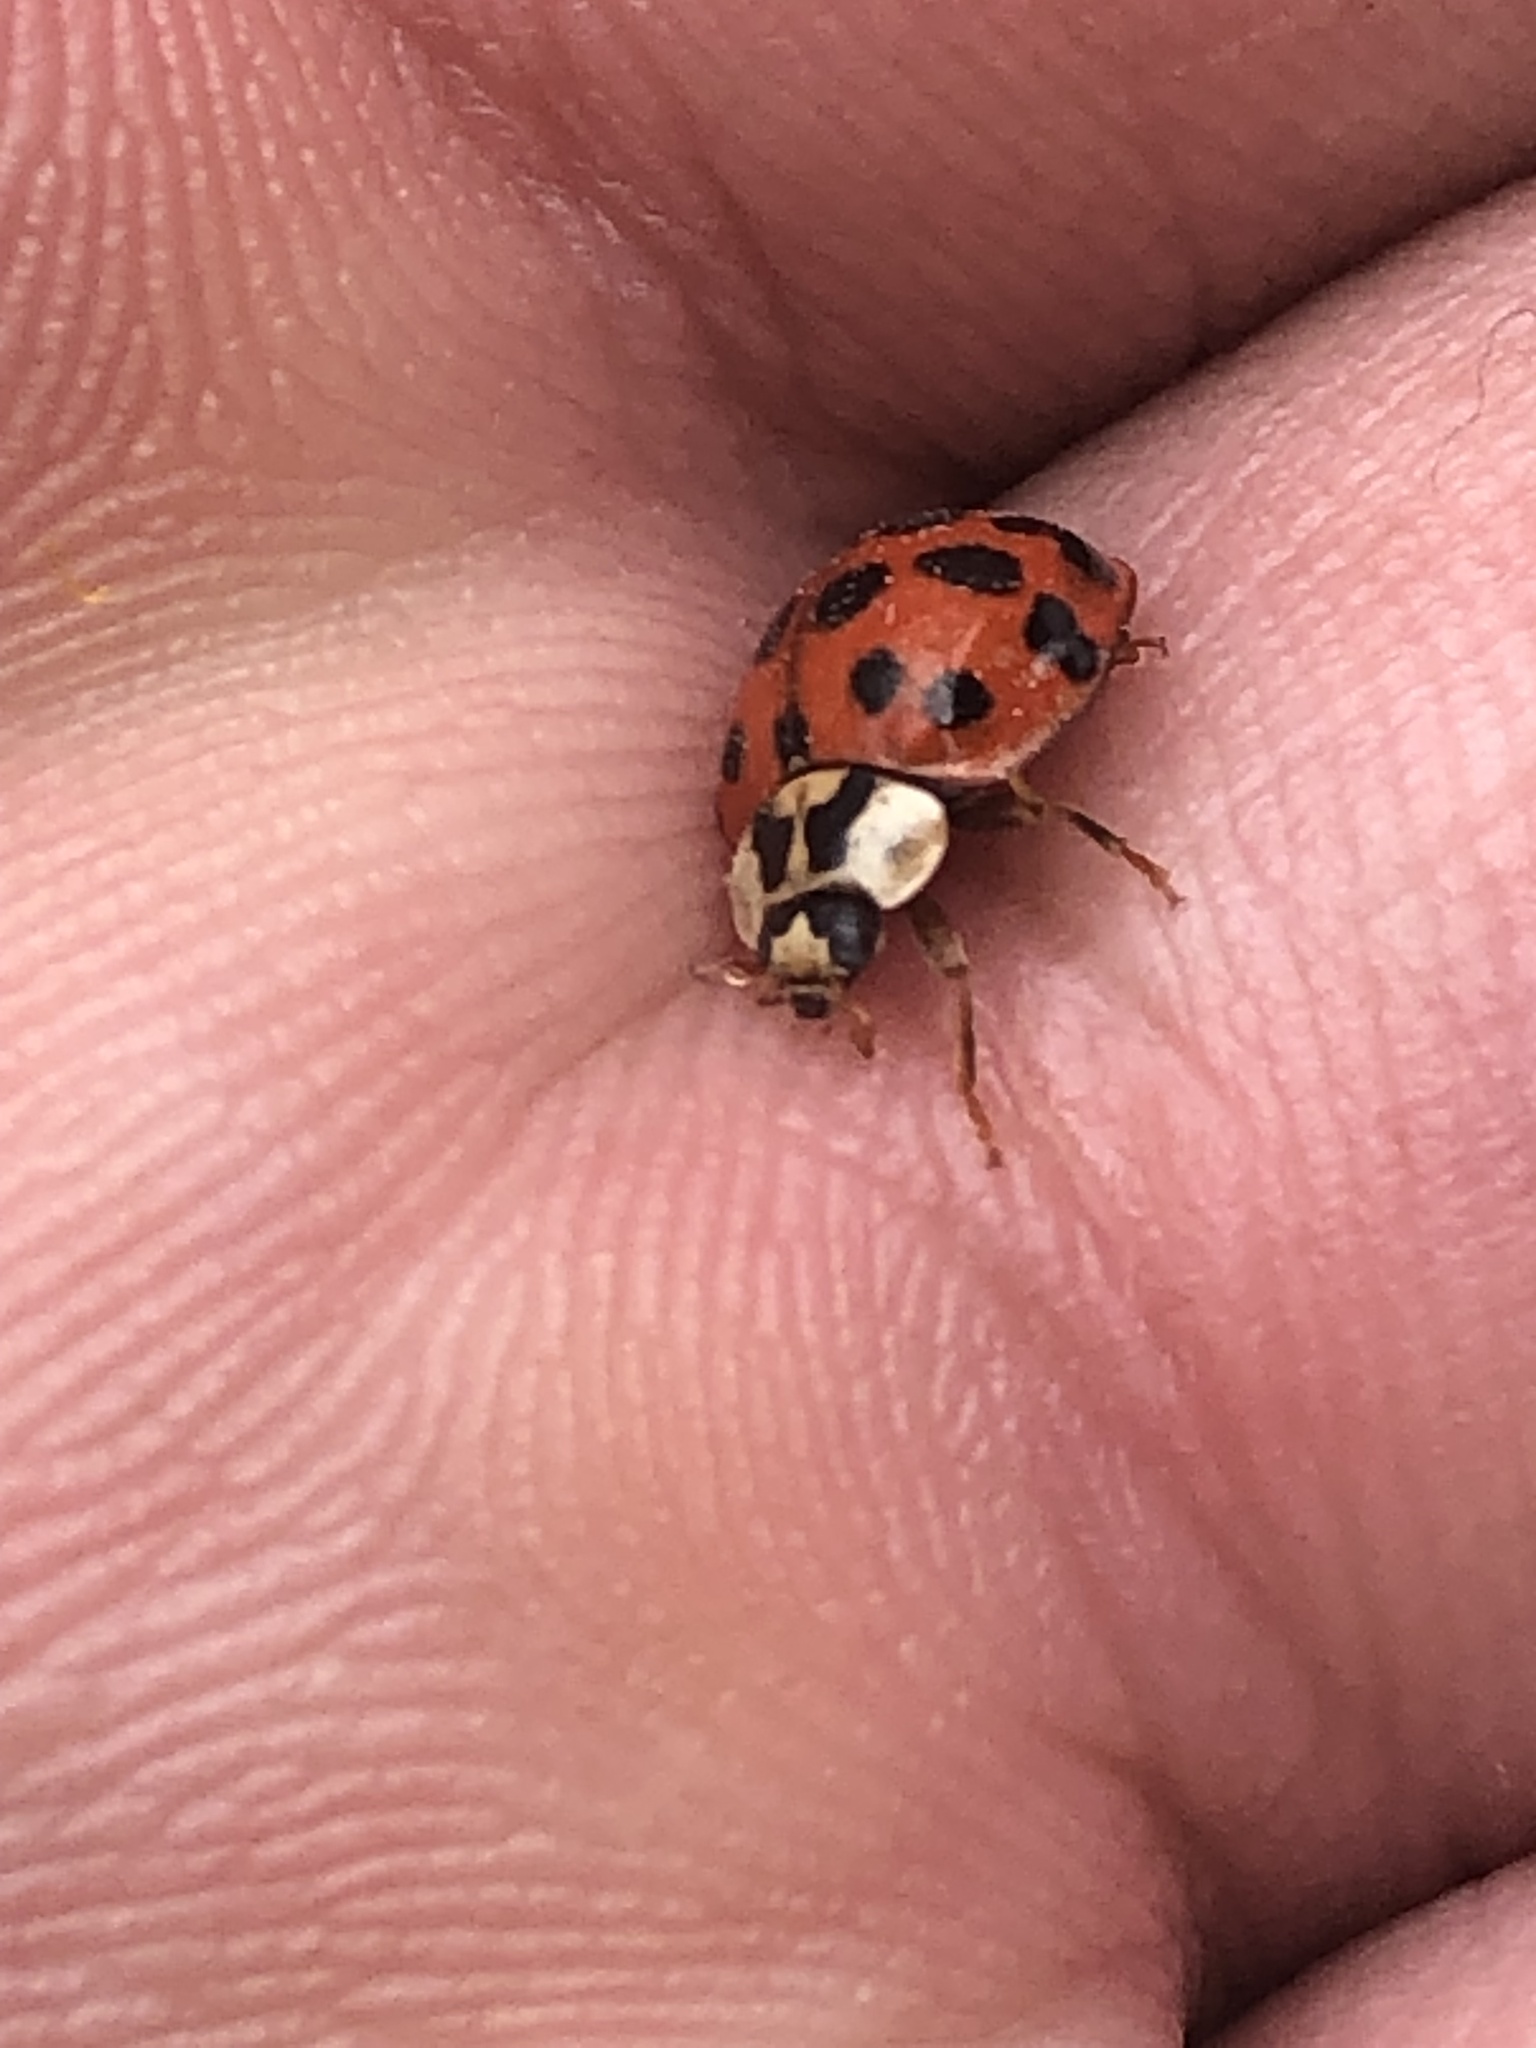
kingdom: Animalia
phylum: Arthropoda
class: Insecta
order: Coleoptera
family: Coccinellidae
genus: Harmonia
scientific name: Harmonia axyridis
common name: Harlequin ladybird
